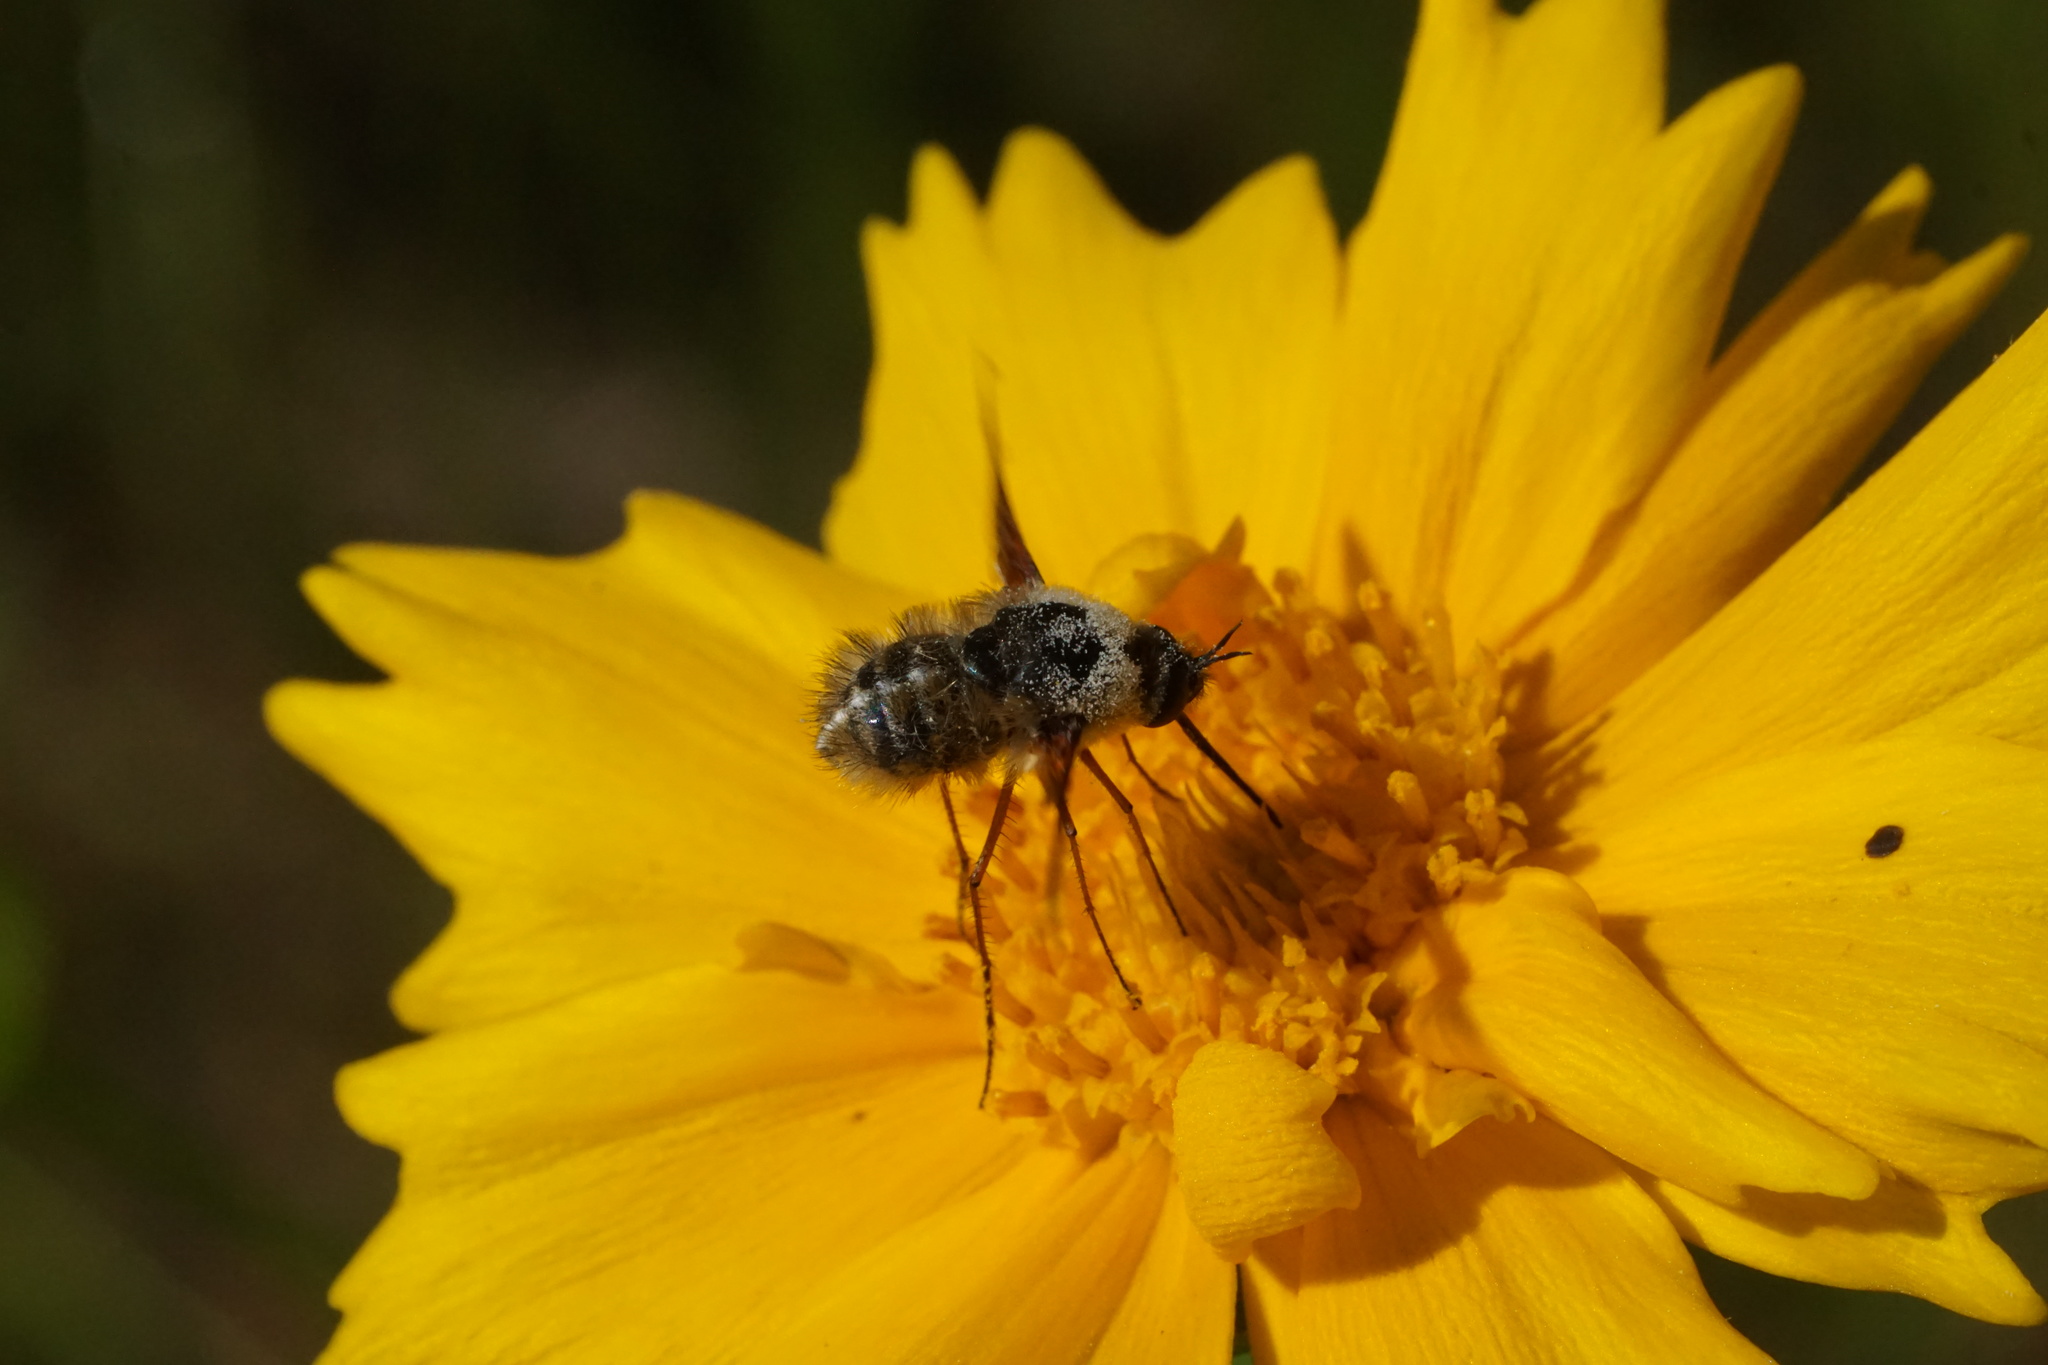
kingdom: Animalia
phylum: Arthropoda
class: Insecta
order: Diptera
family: Bombyliidae
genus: Bombylius
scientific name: Bombylius mexicanus
